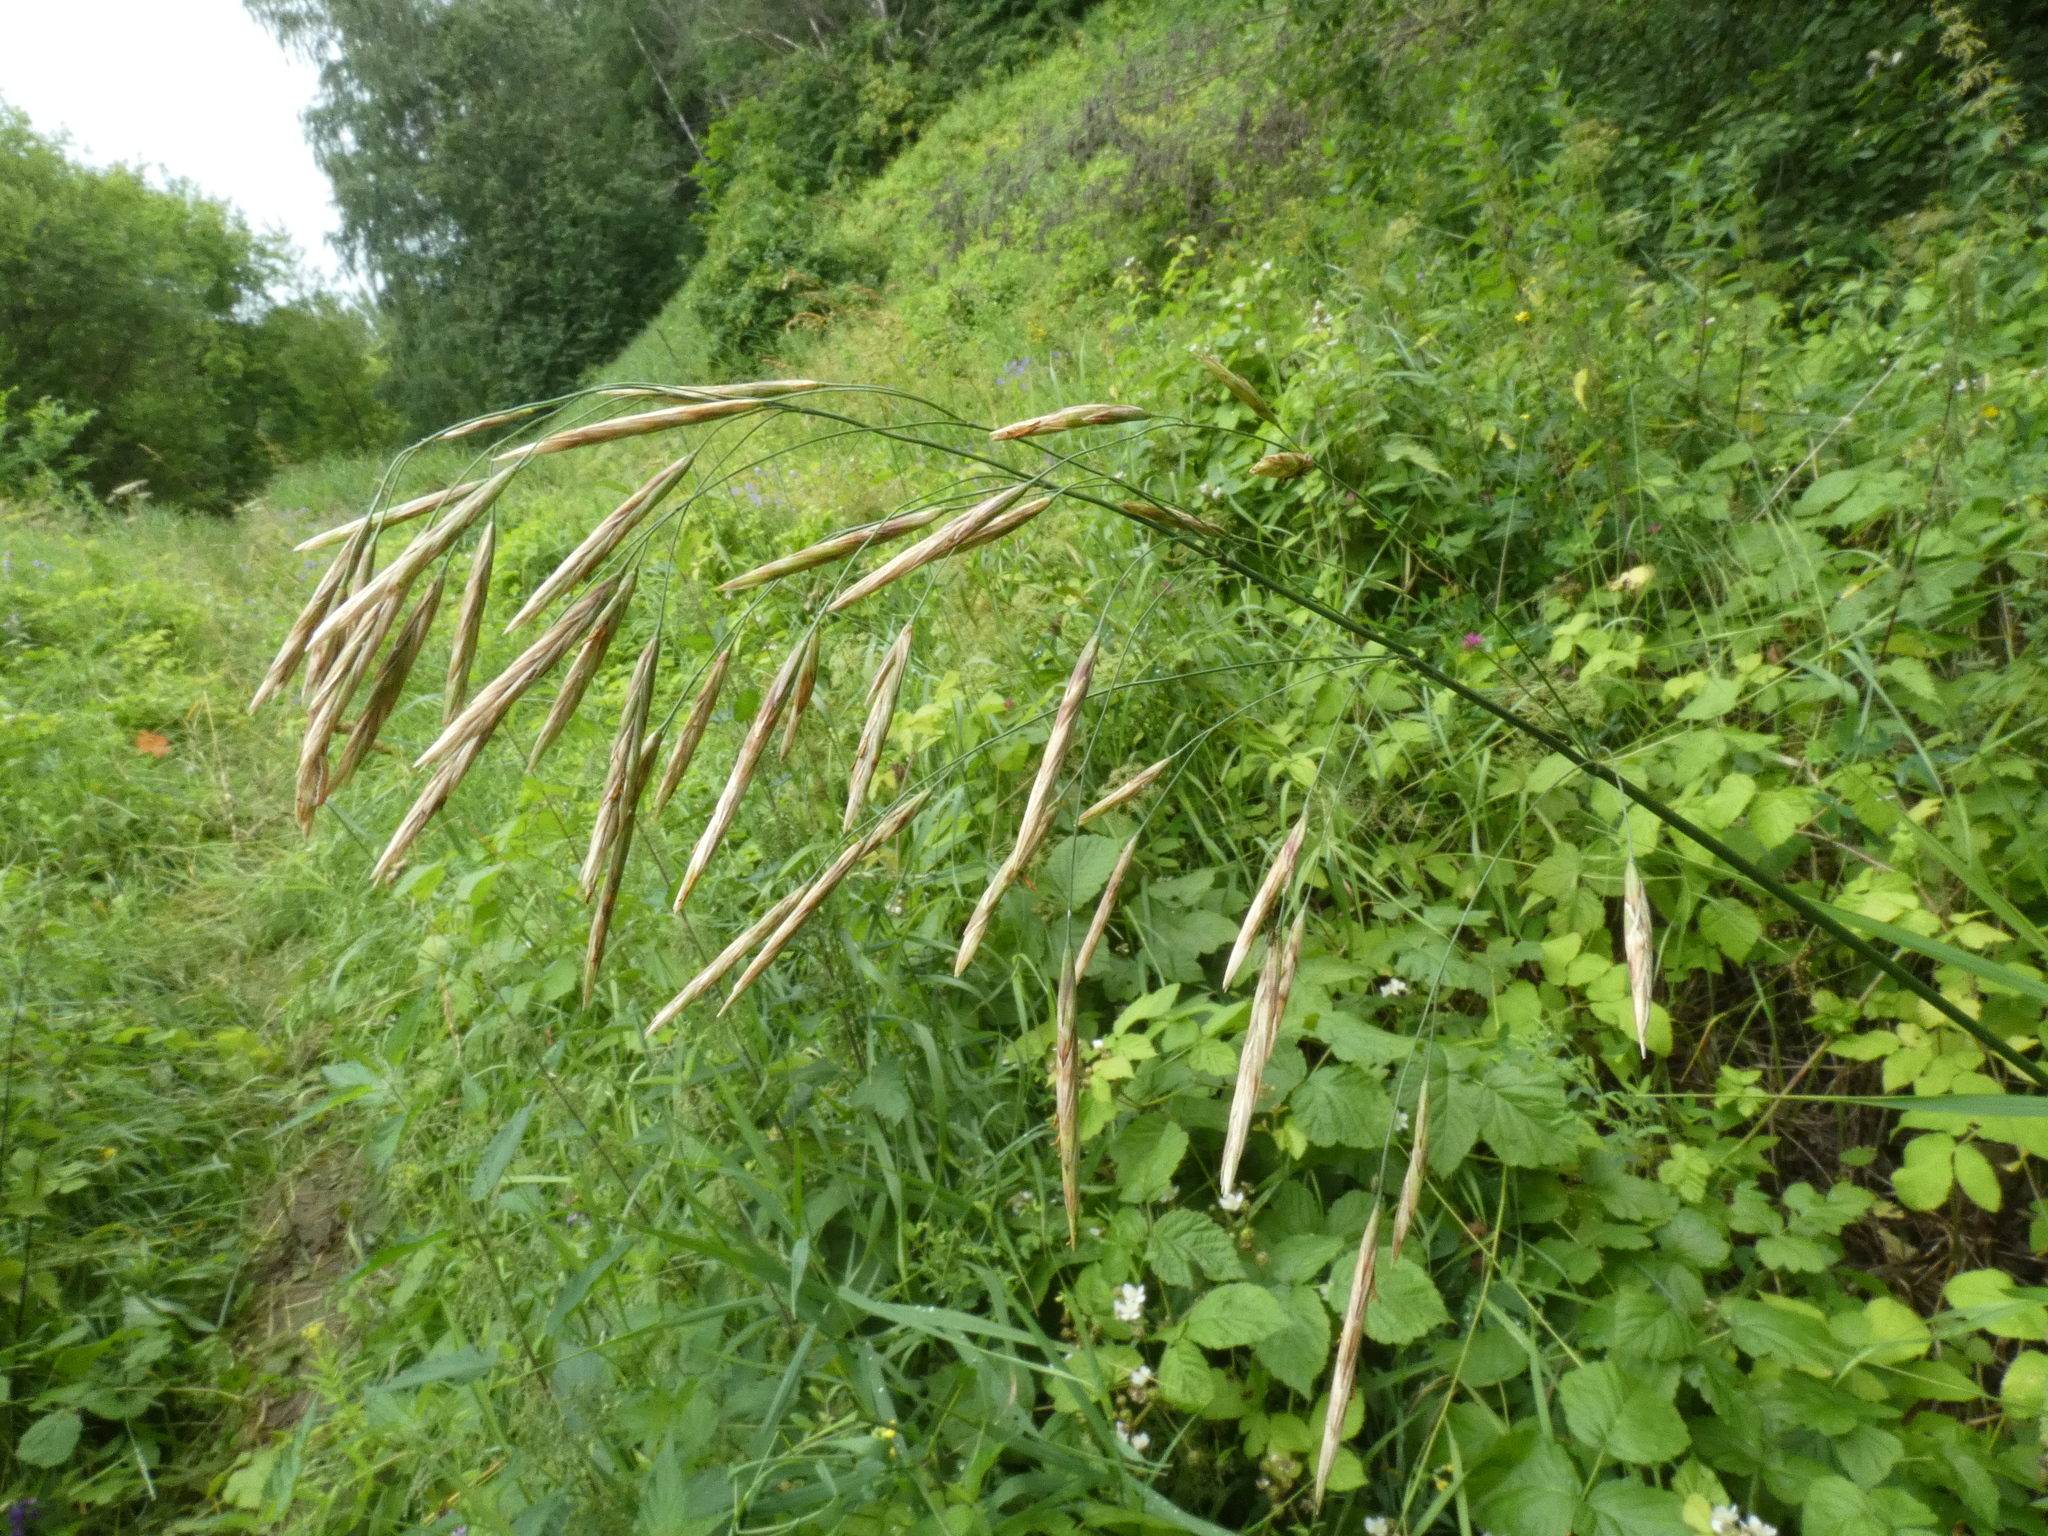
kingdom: Plantae
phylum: Tracheophyta
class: Liliopsida
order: Poales
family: Poaceae
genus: Bromus
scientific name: Bromus inermis
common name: Smooth brome
